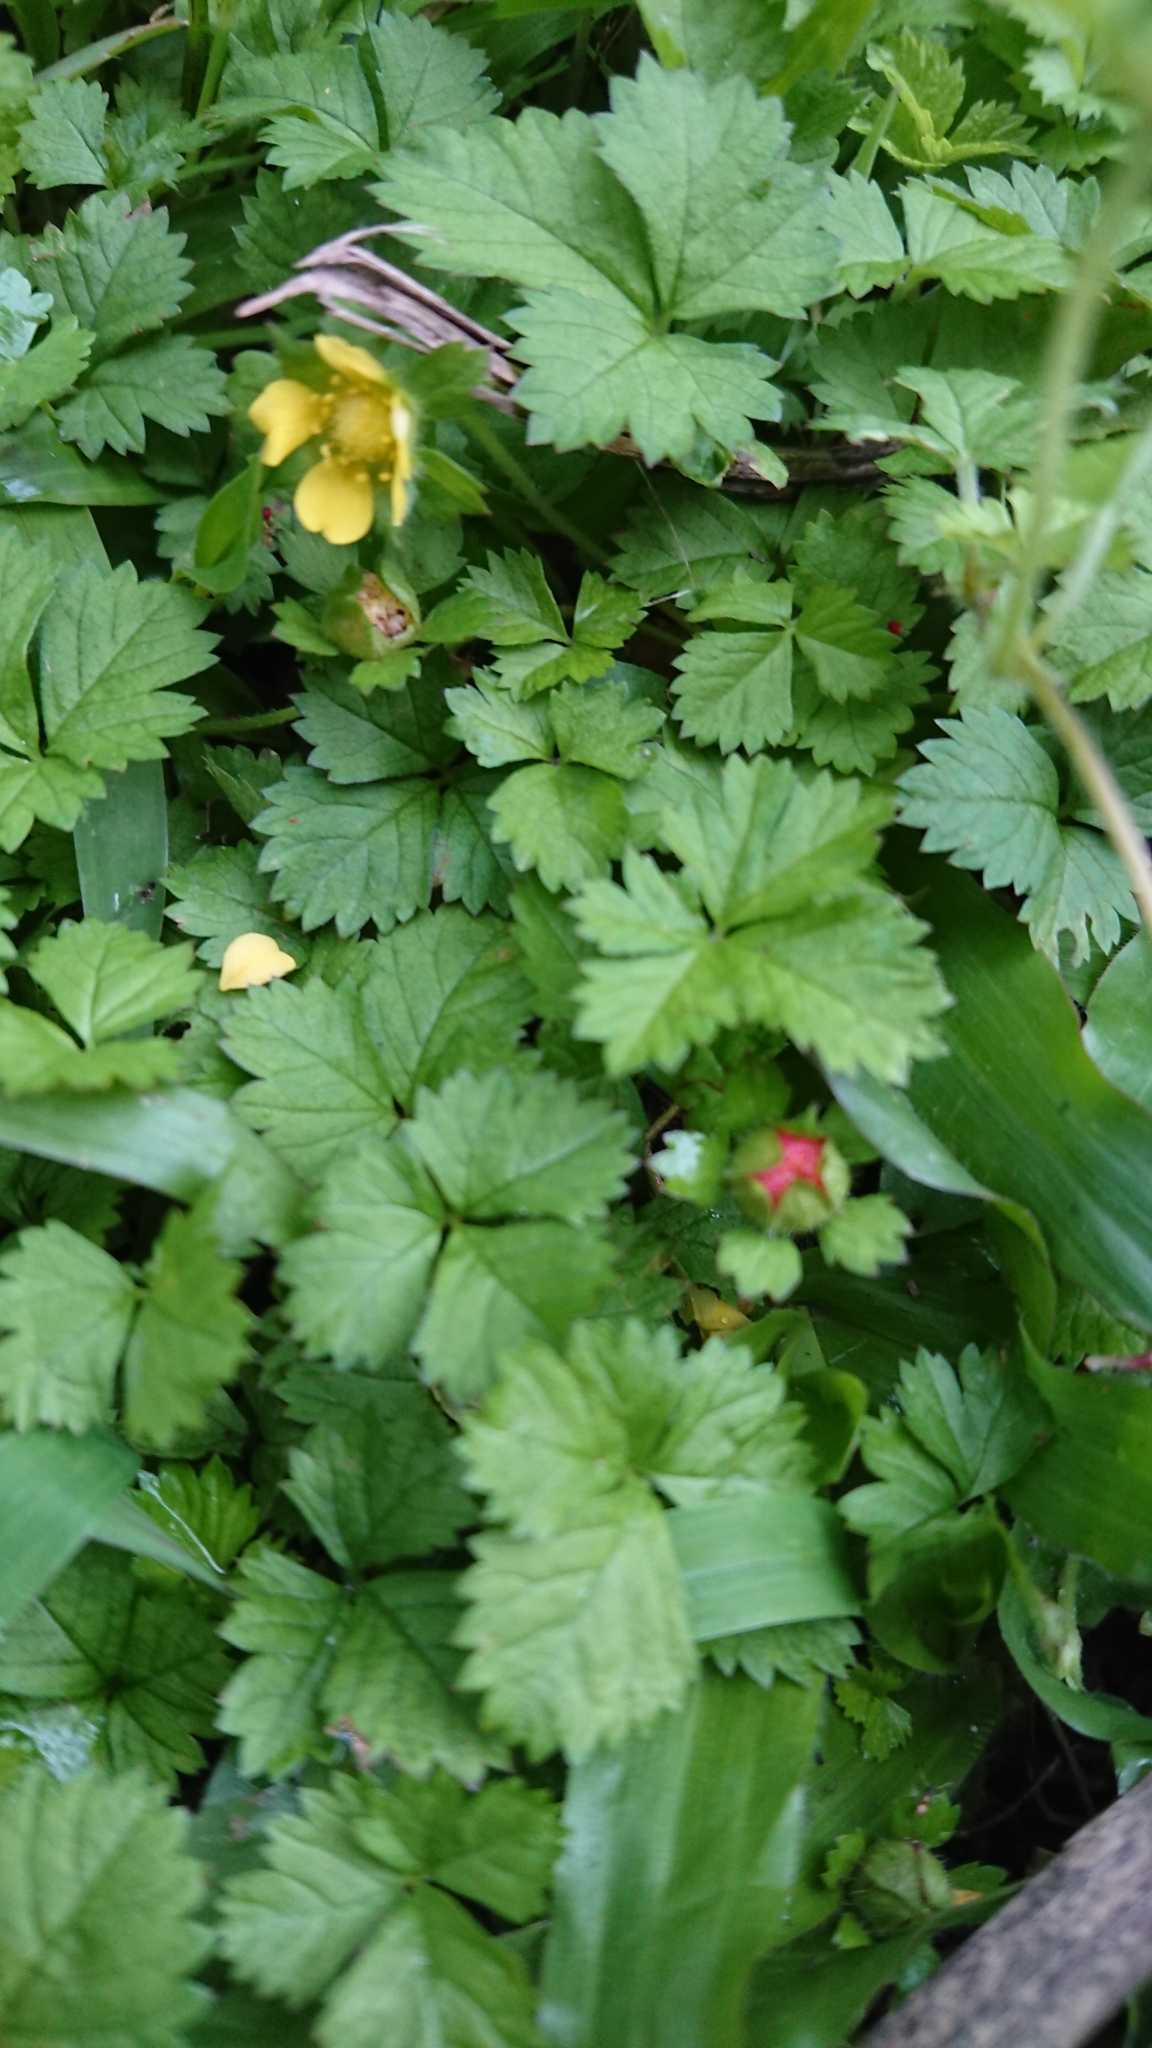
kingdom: Plantae
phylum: Tracheophyta
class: Magnoliopsida
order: Rosales
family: Rosaceae
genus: Potentilla
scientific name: Potentilla wallichiana
